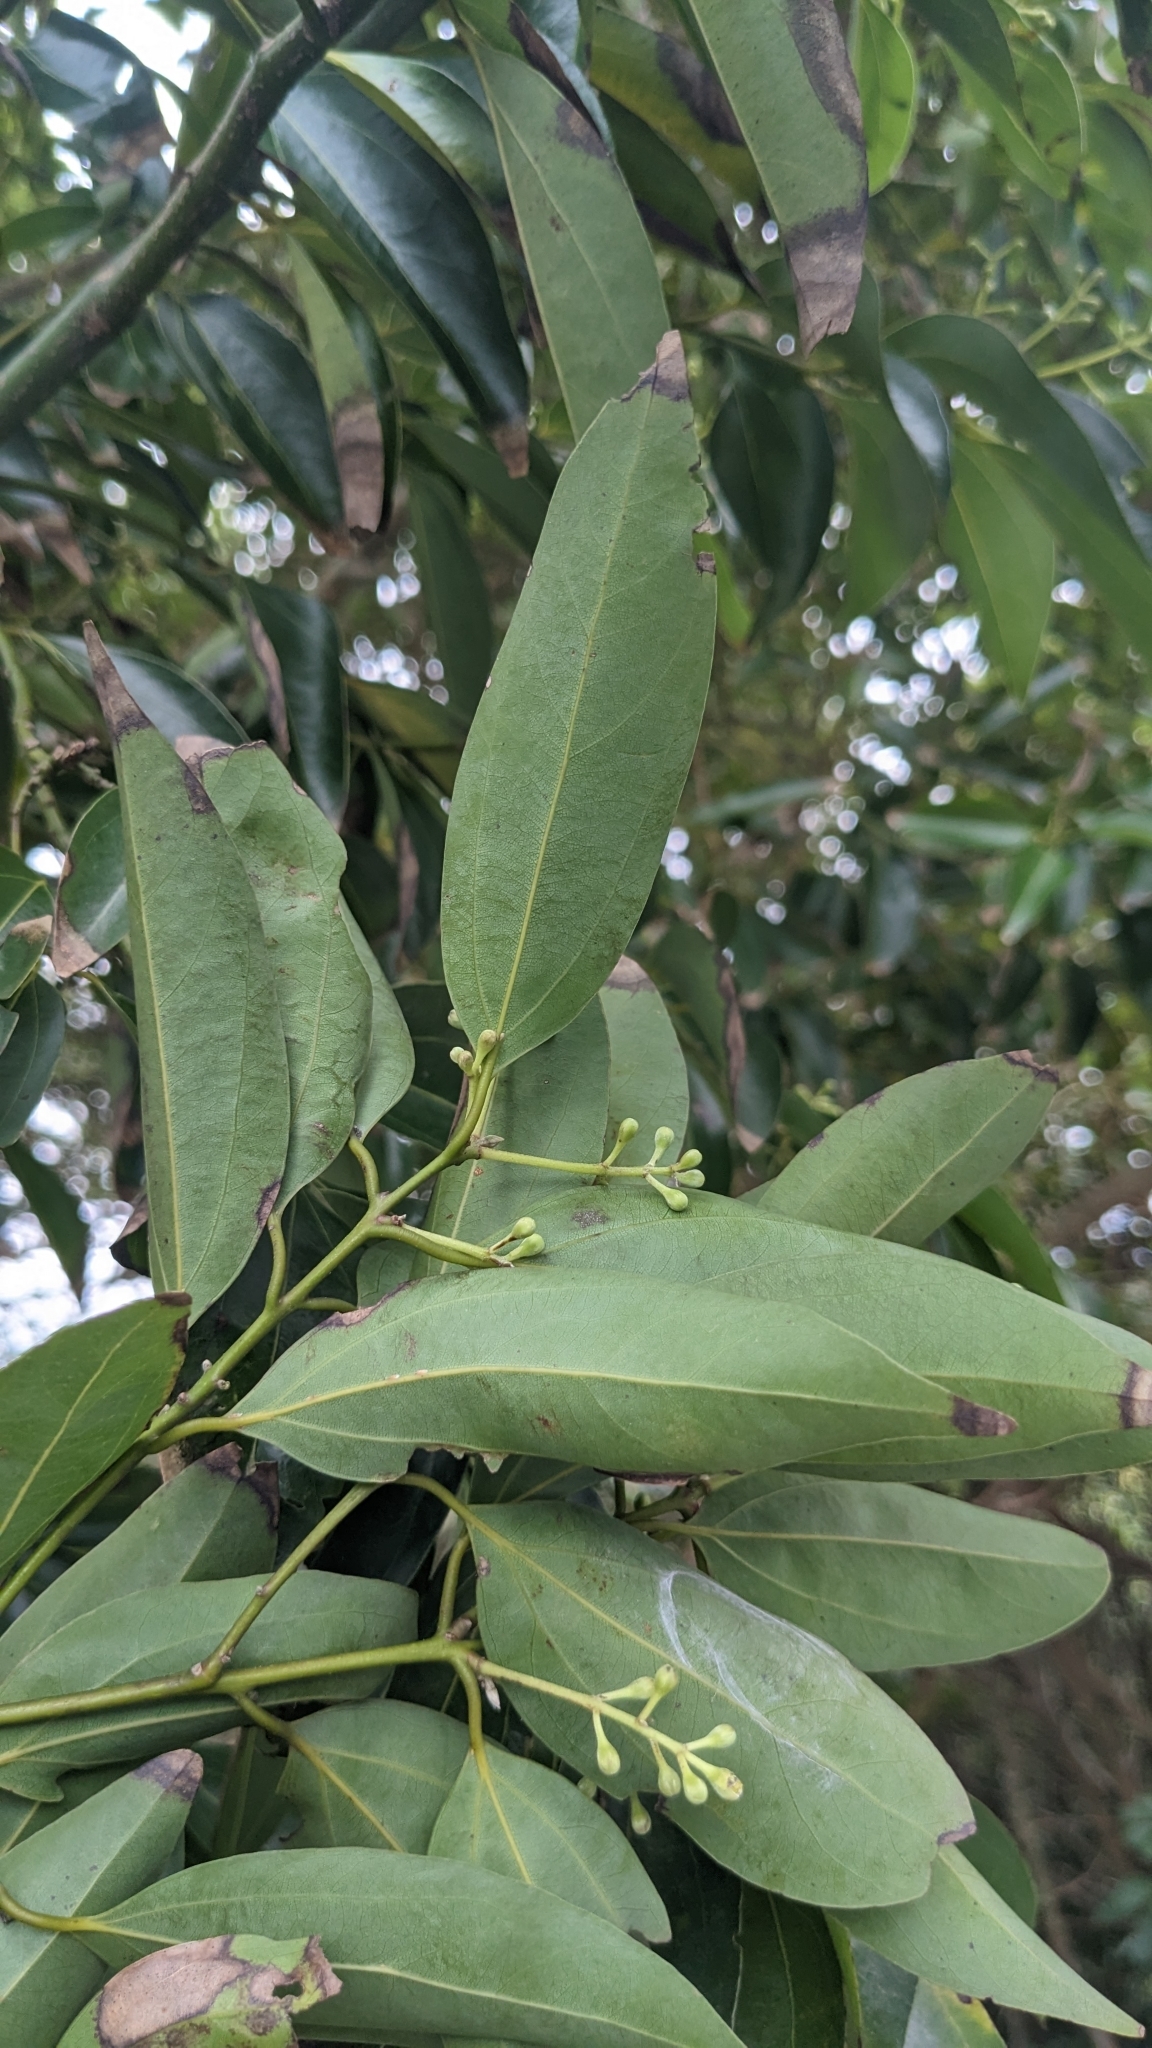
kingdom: Plantae
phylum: Tracheophyta
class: Magnoliopsida
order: Laurales
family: Lauraceae
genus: Cinnamomum
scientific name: Cinnamomum burmanni
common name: Padang cassia
